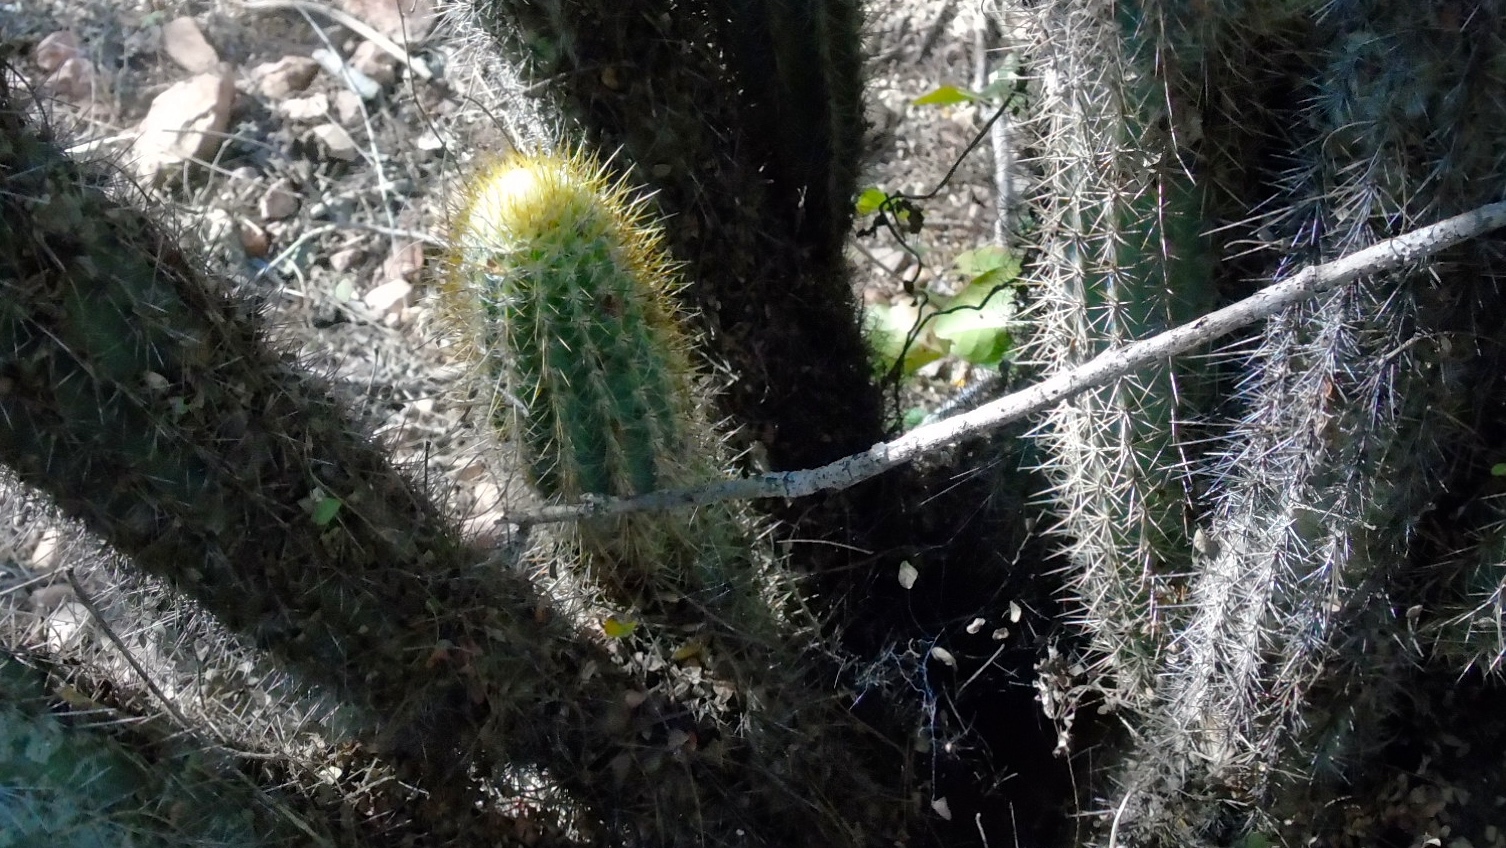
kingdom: Plantae
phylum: Tracheophyta
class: Magnoliopsida
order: Caryophyllales
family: Cactaceae
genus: Pilosocereus
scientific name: Pilosocereus purpusii
